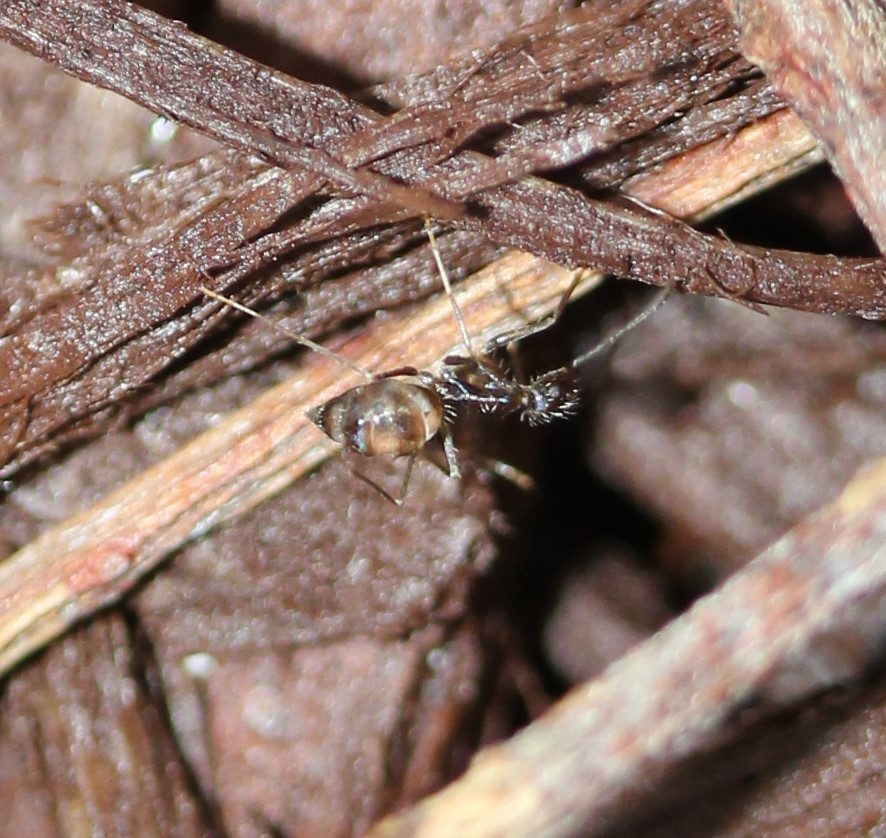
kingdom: Animalia
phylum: Arthropoda
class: Insecta
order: Hymenoptera
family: Formicidae
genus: Paratrechina
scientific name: Paratrechina longicornis
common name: Longhorned crazy ant
